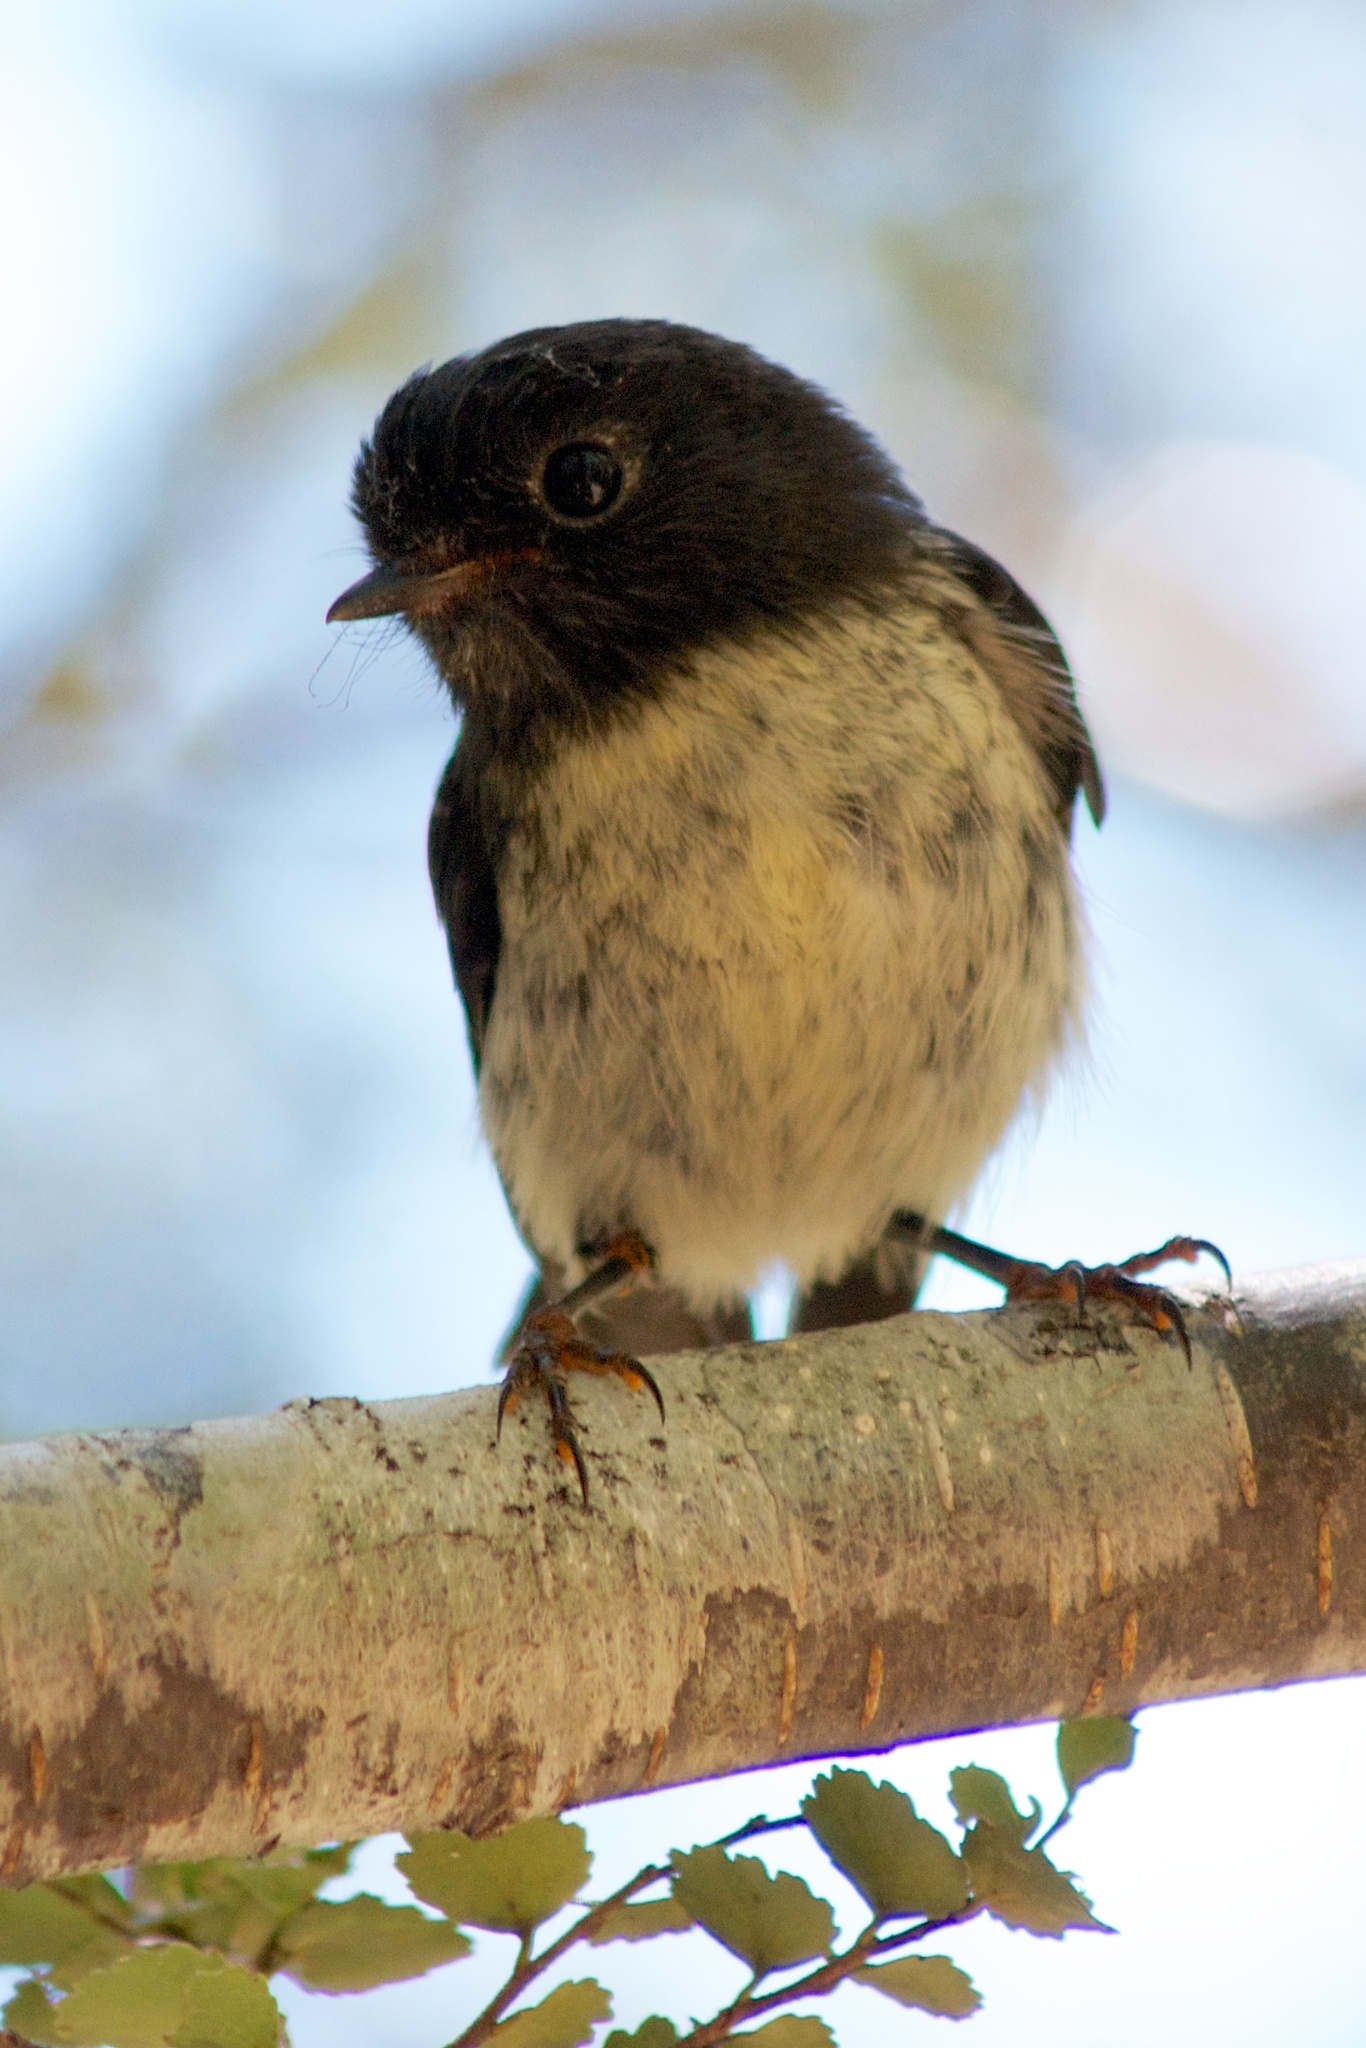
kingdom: Animalia
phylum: Chordata
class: Aves
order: Passeriformes
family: Petroicidae
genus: Petroica
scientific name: Petroica macrocephala
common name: Tomtit
